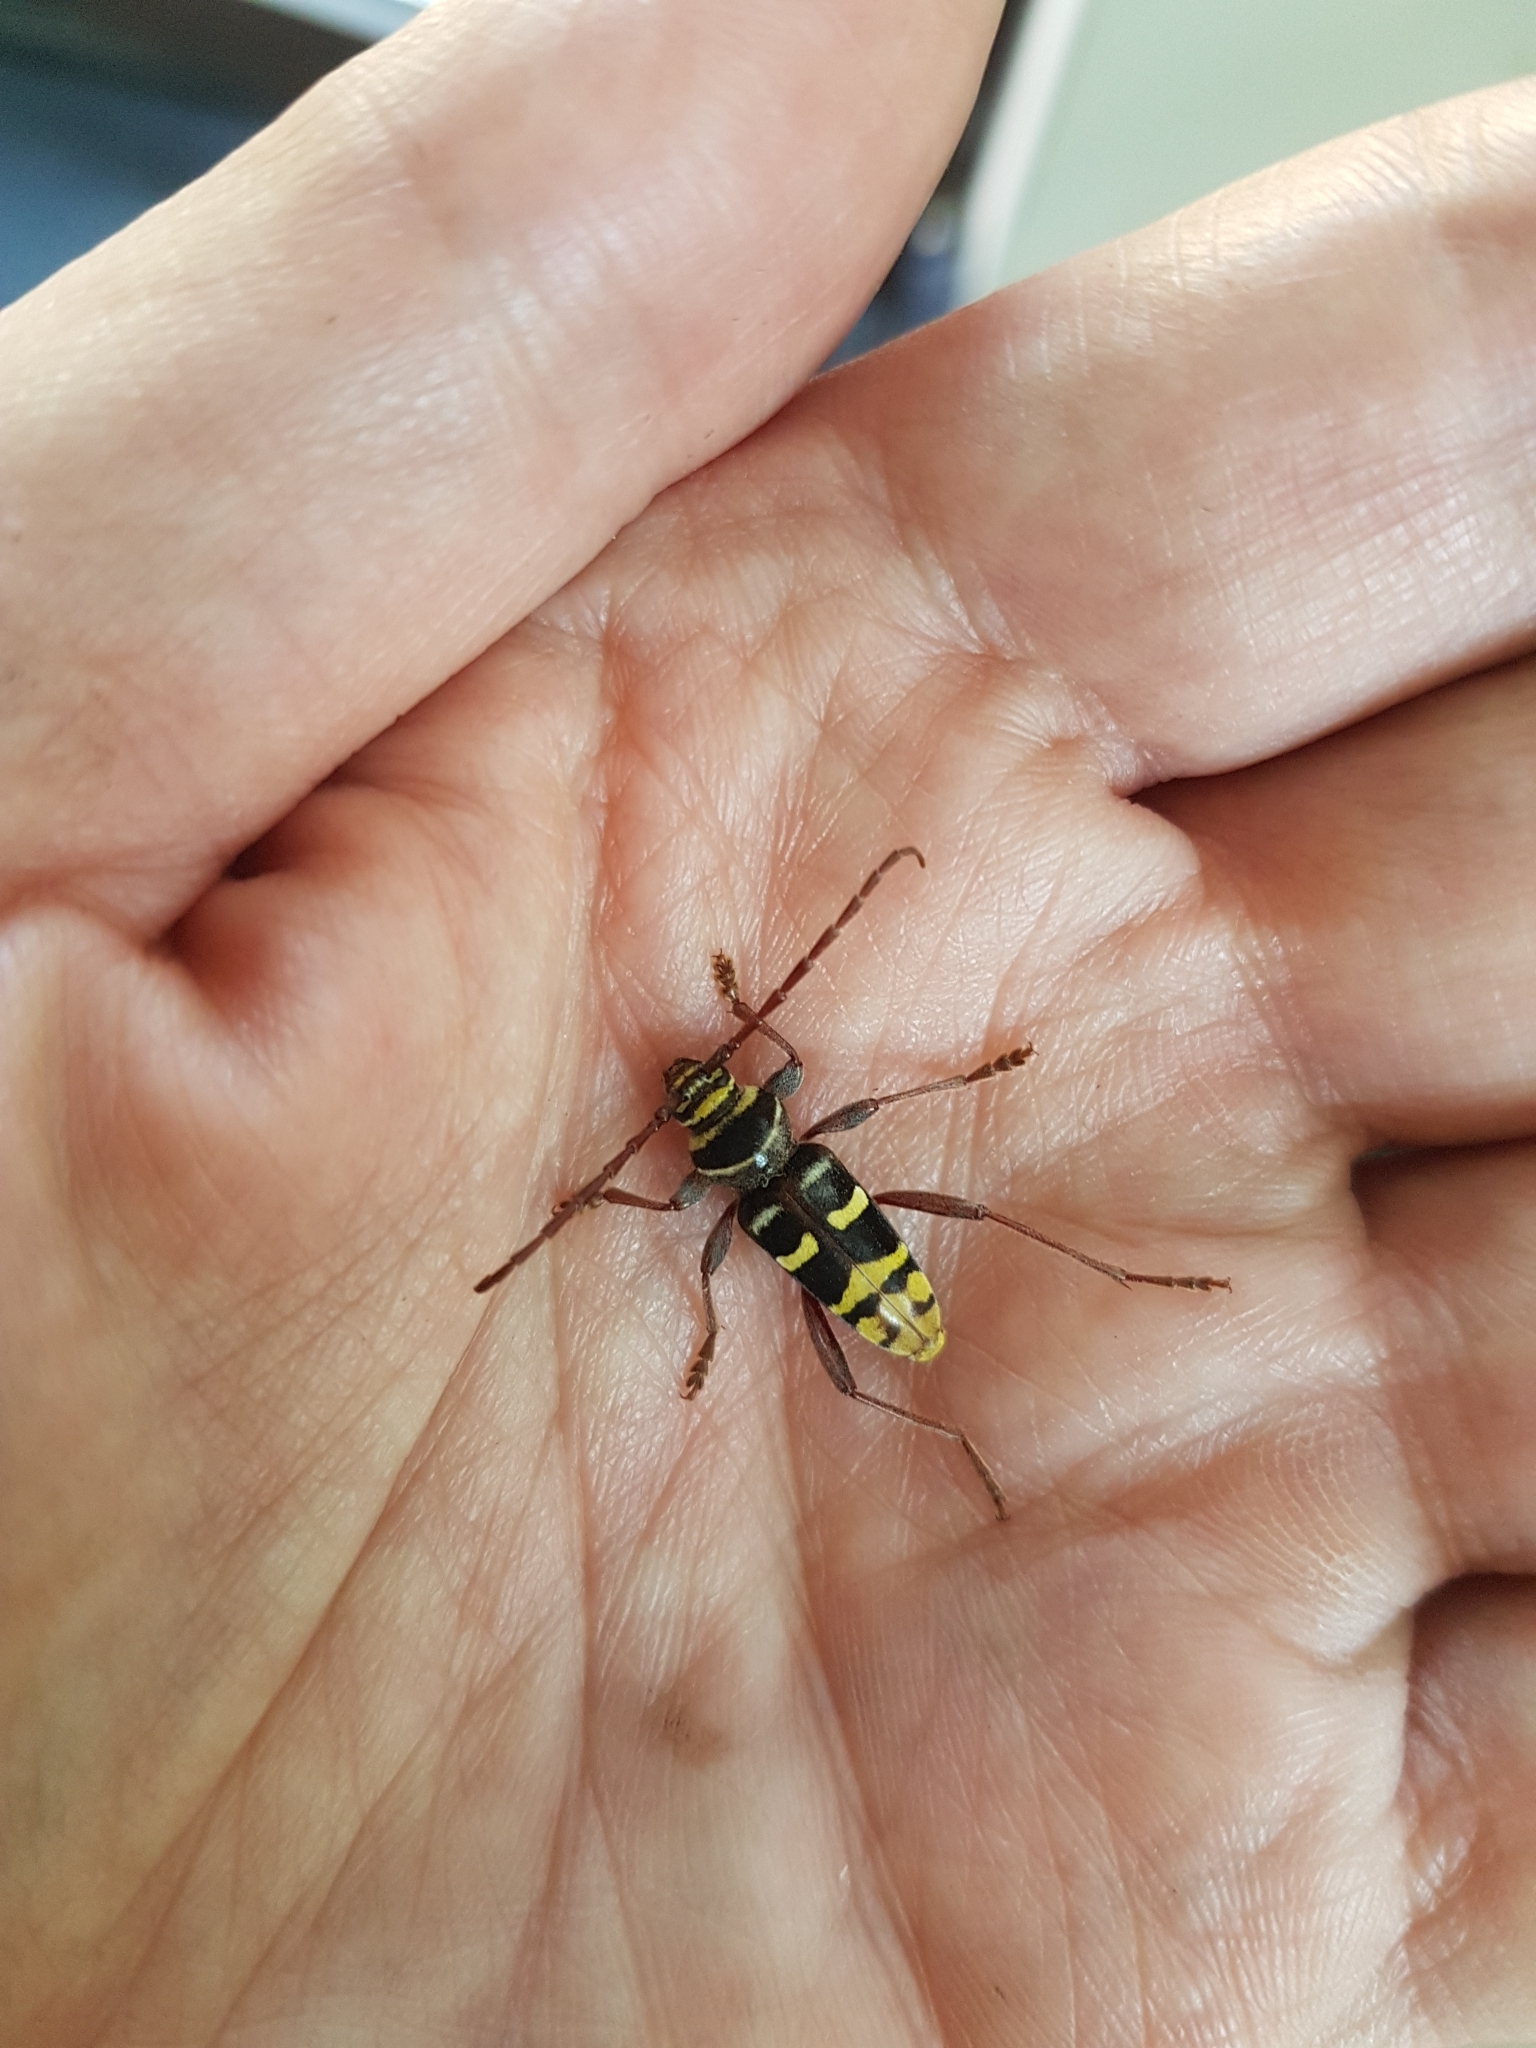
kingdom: Animalia
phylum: Arthropoda
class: Insecta
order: Coleoptera
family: Cerambycidae
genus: Plagionotus
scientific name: Plagionotus detritus
